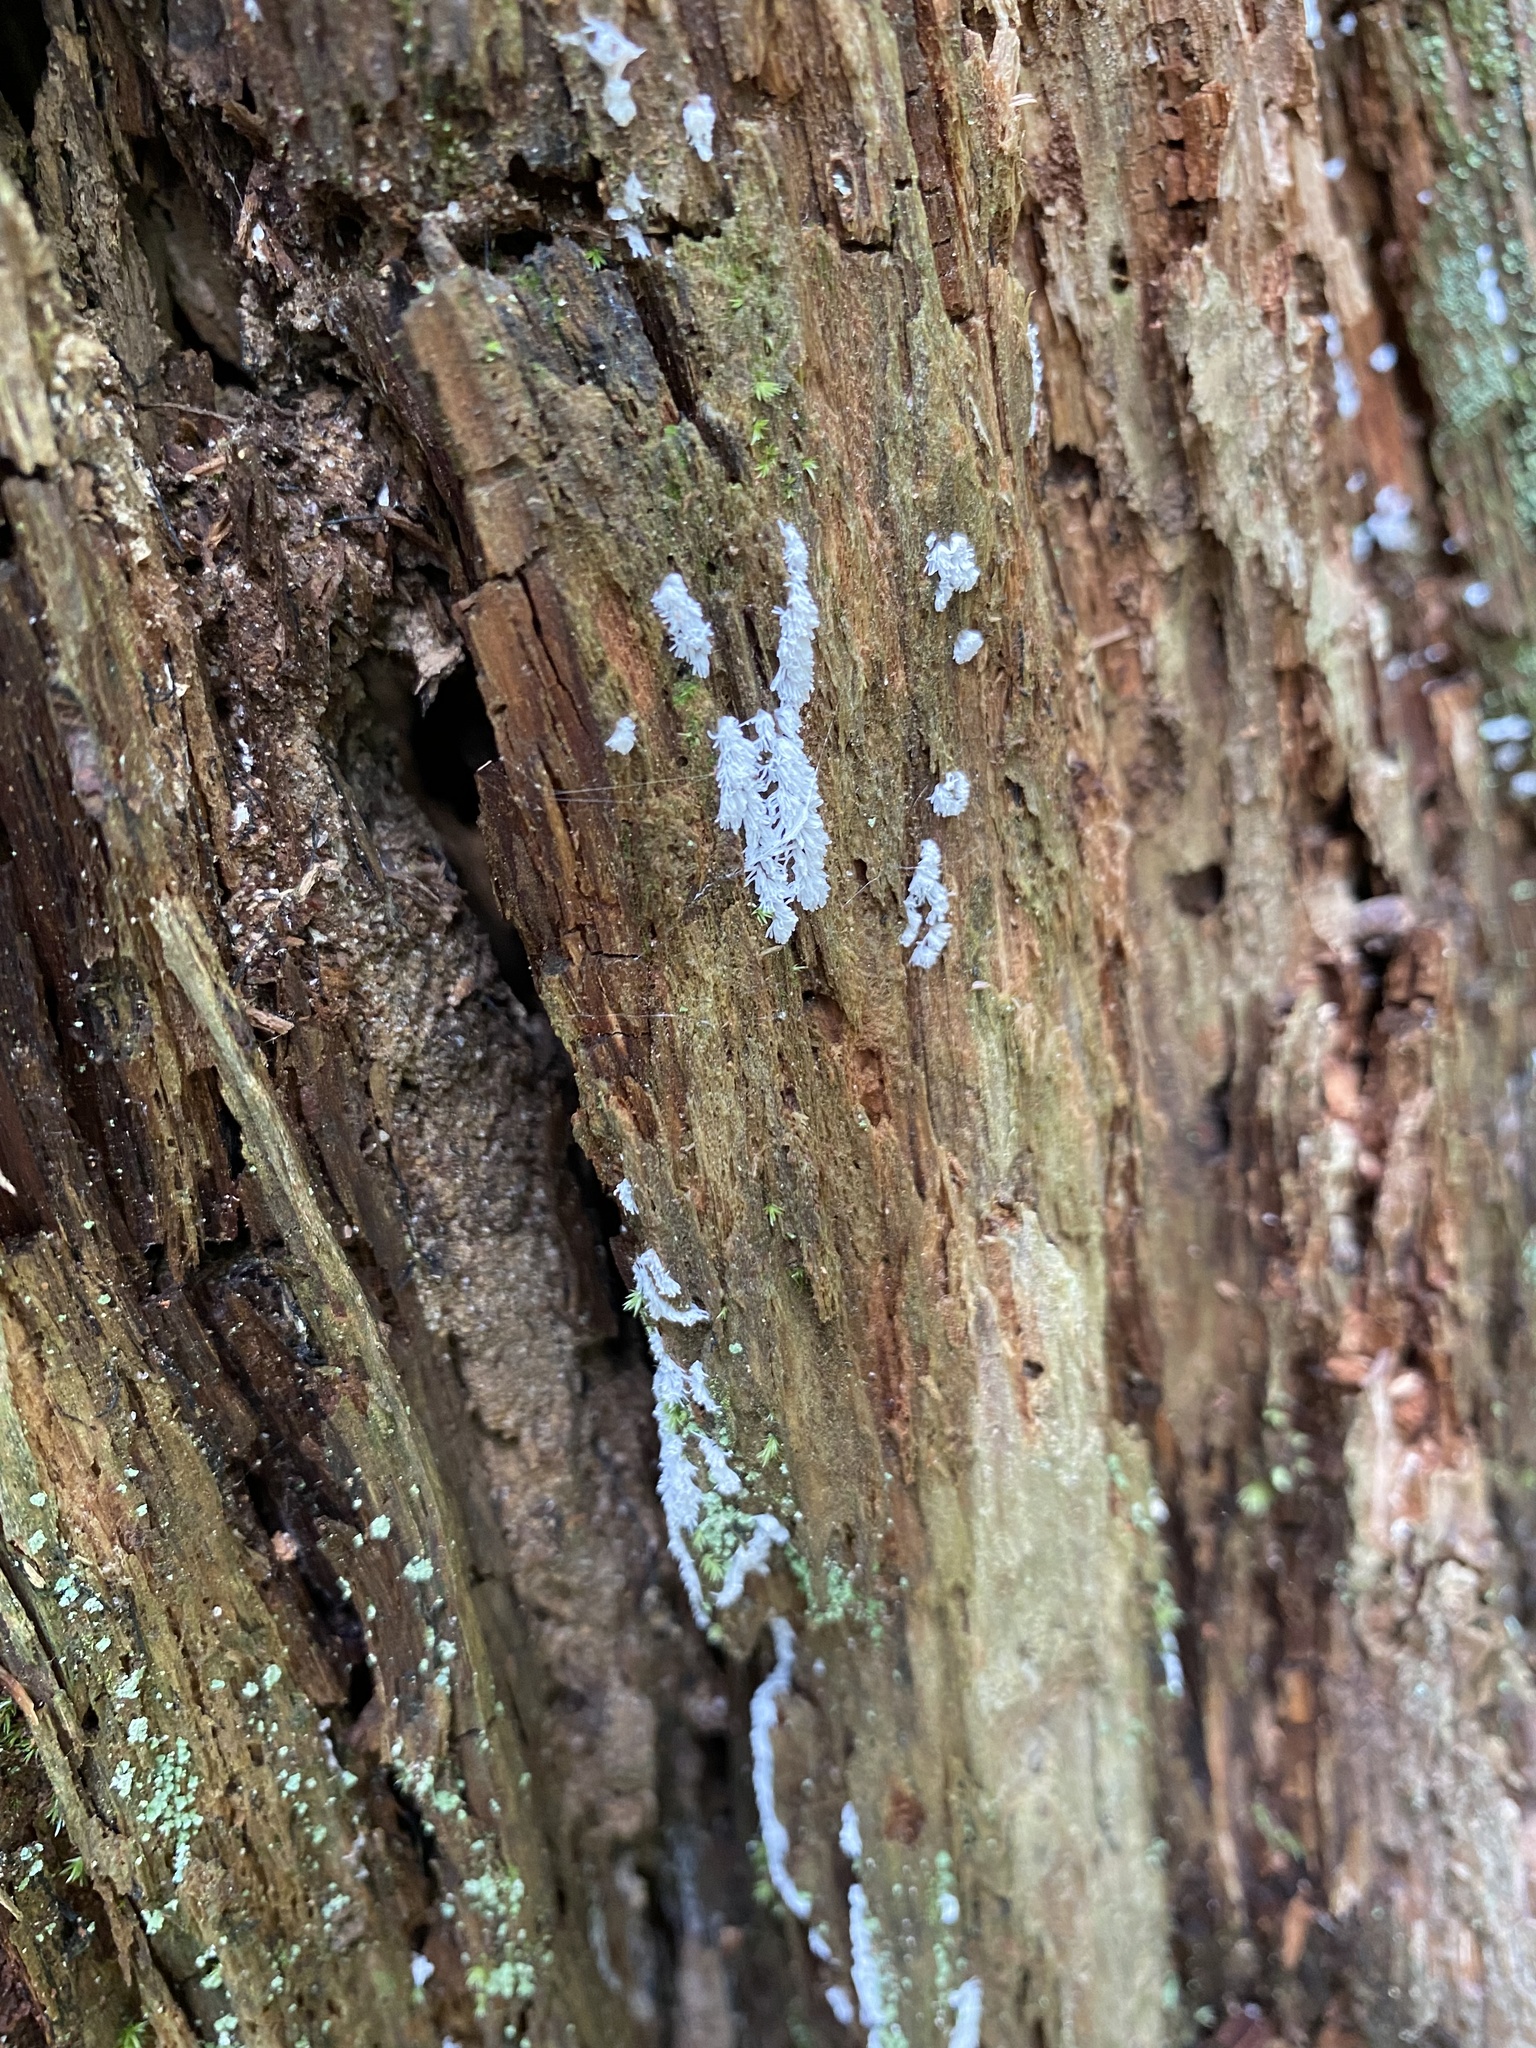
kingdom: Protozoa
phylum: Mycetozoa
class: Protosteliomycetes
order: Ceratiomyxales
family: Ceratiomyxaceae
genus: Ceratiomyxa
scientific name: Ceratiomyxa fruticulosa
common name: Honeycomb coral slime mold
